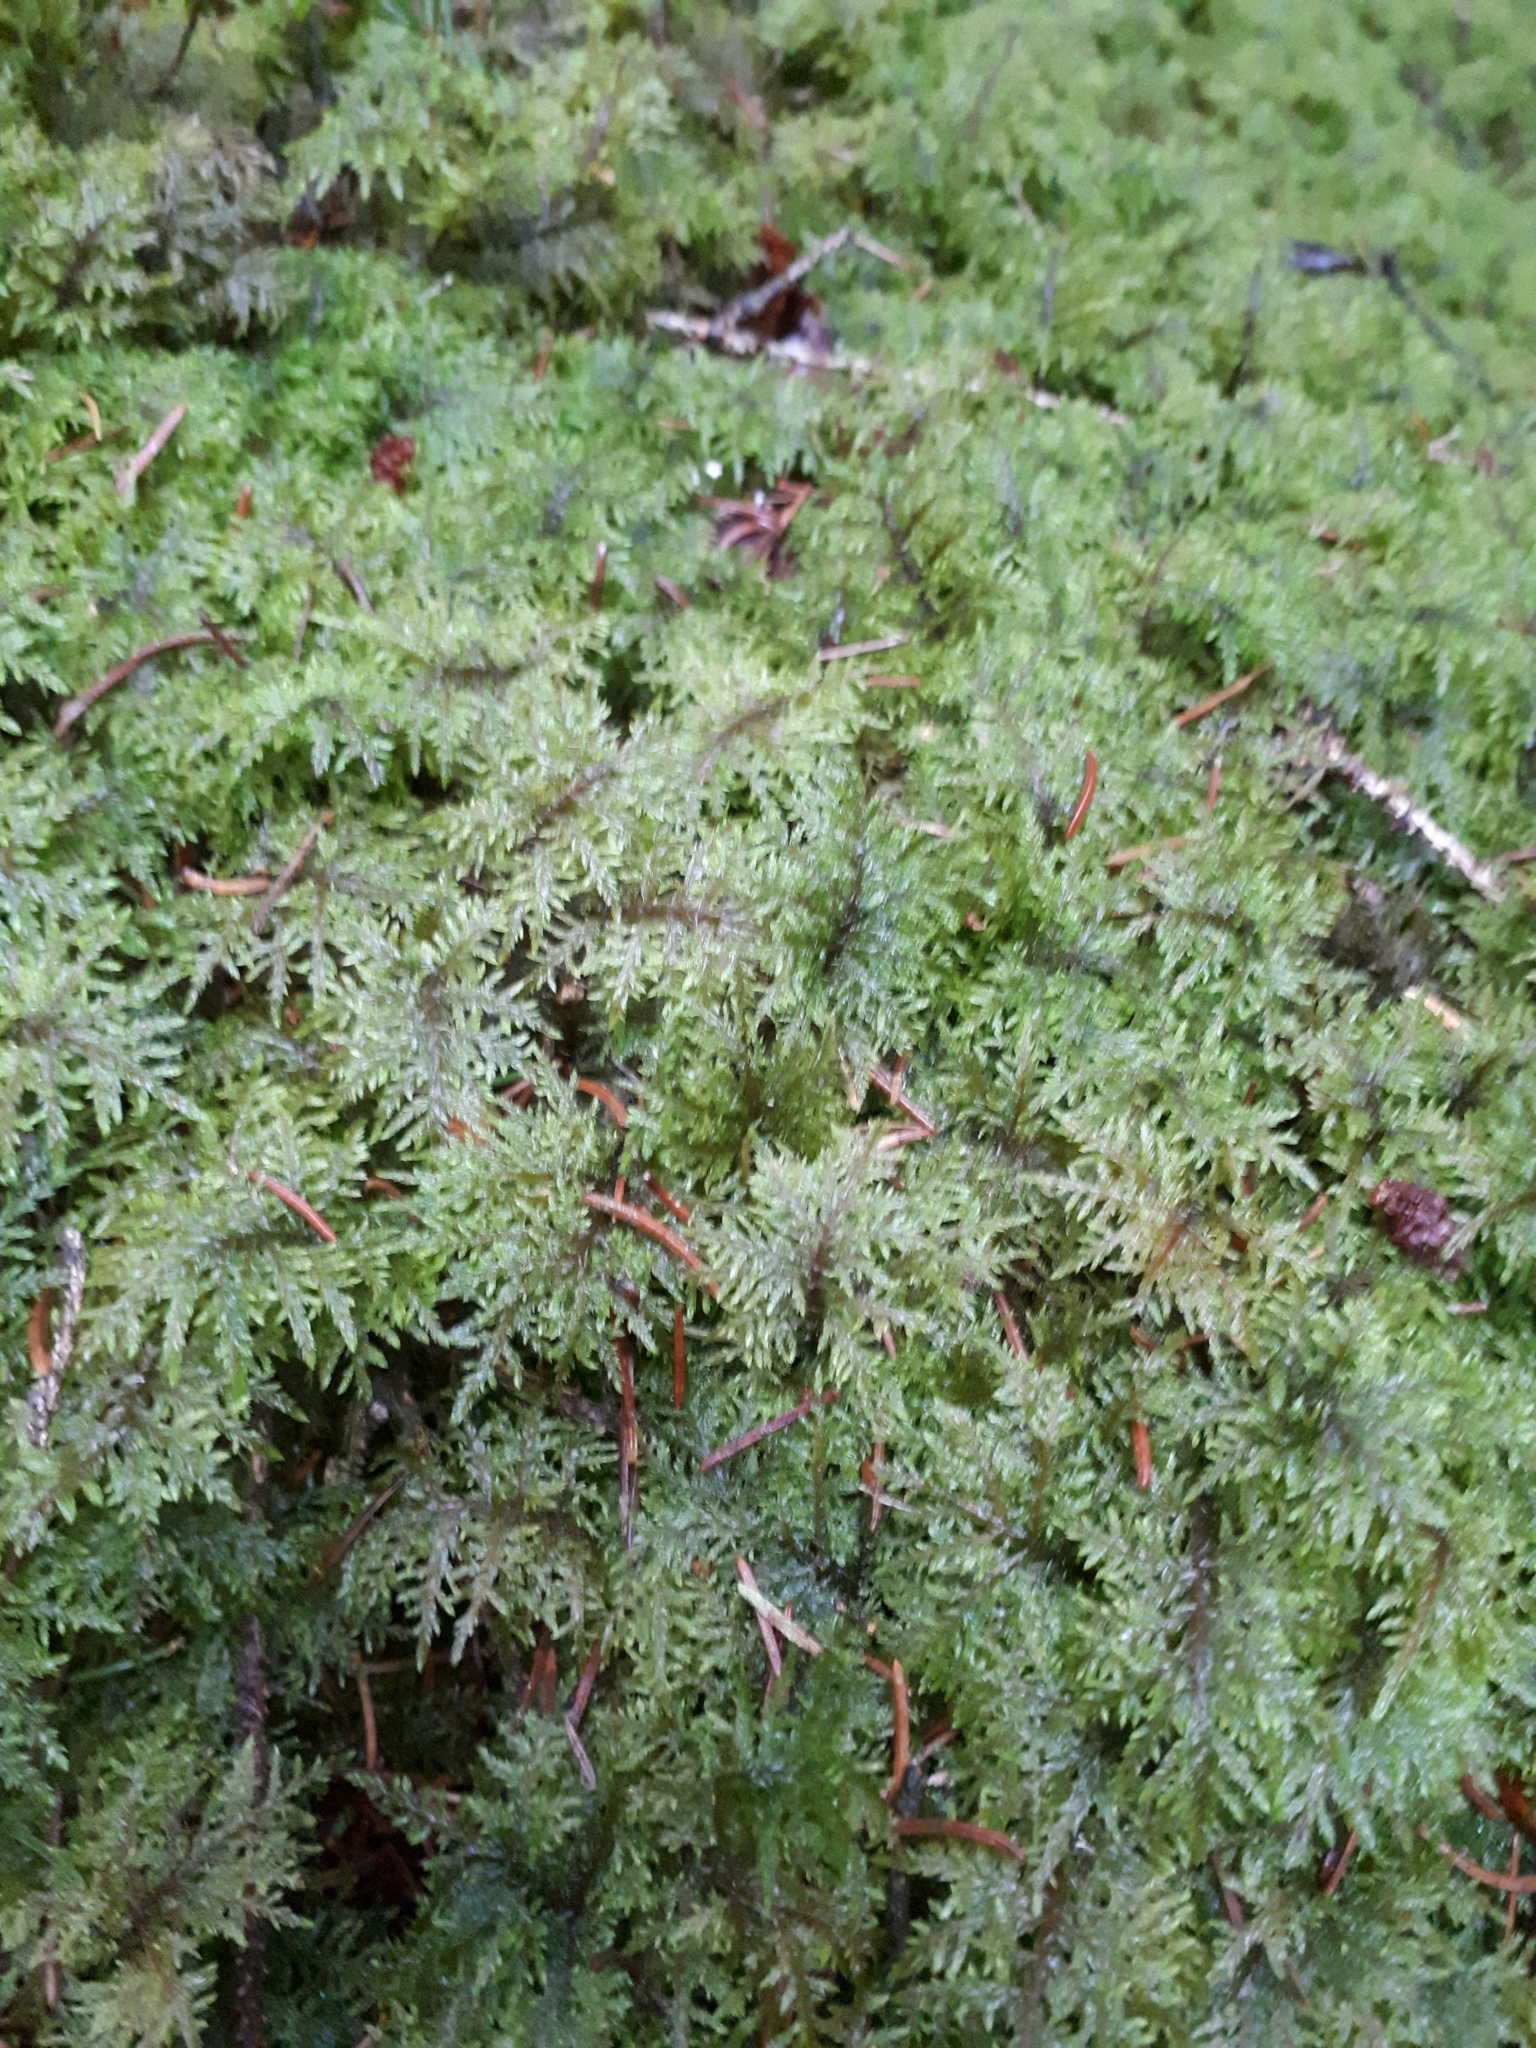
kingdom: Plantae
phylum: Bryophyta
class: Bryopsida
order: Hypnales
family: Hylocomiaceae
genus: Hylocomium
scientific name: Hylocomium splendens
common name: Stairstep moss
